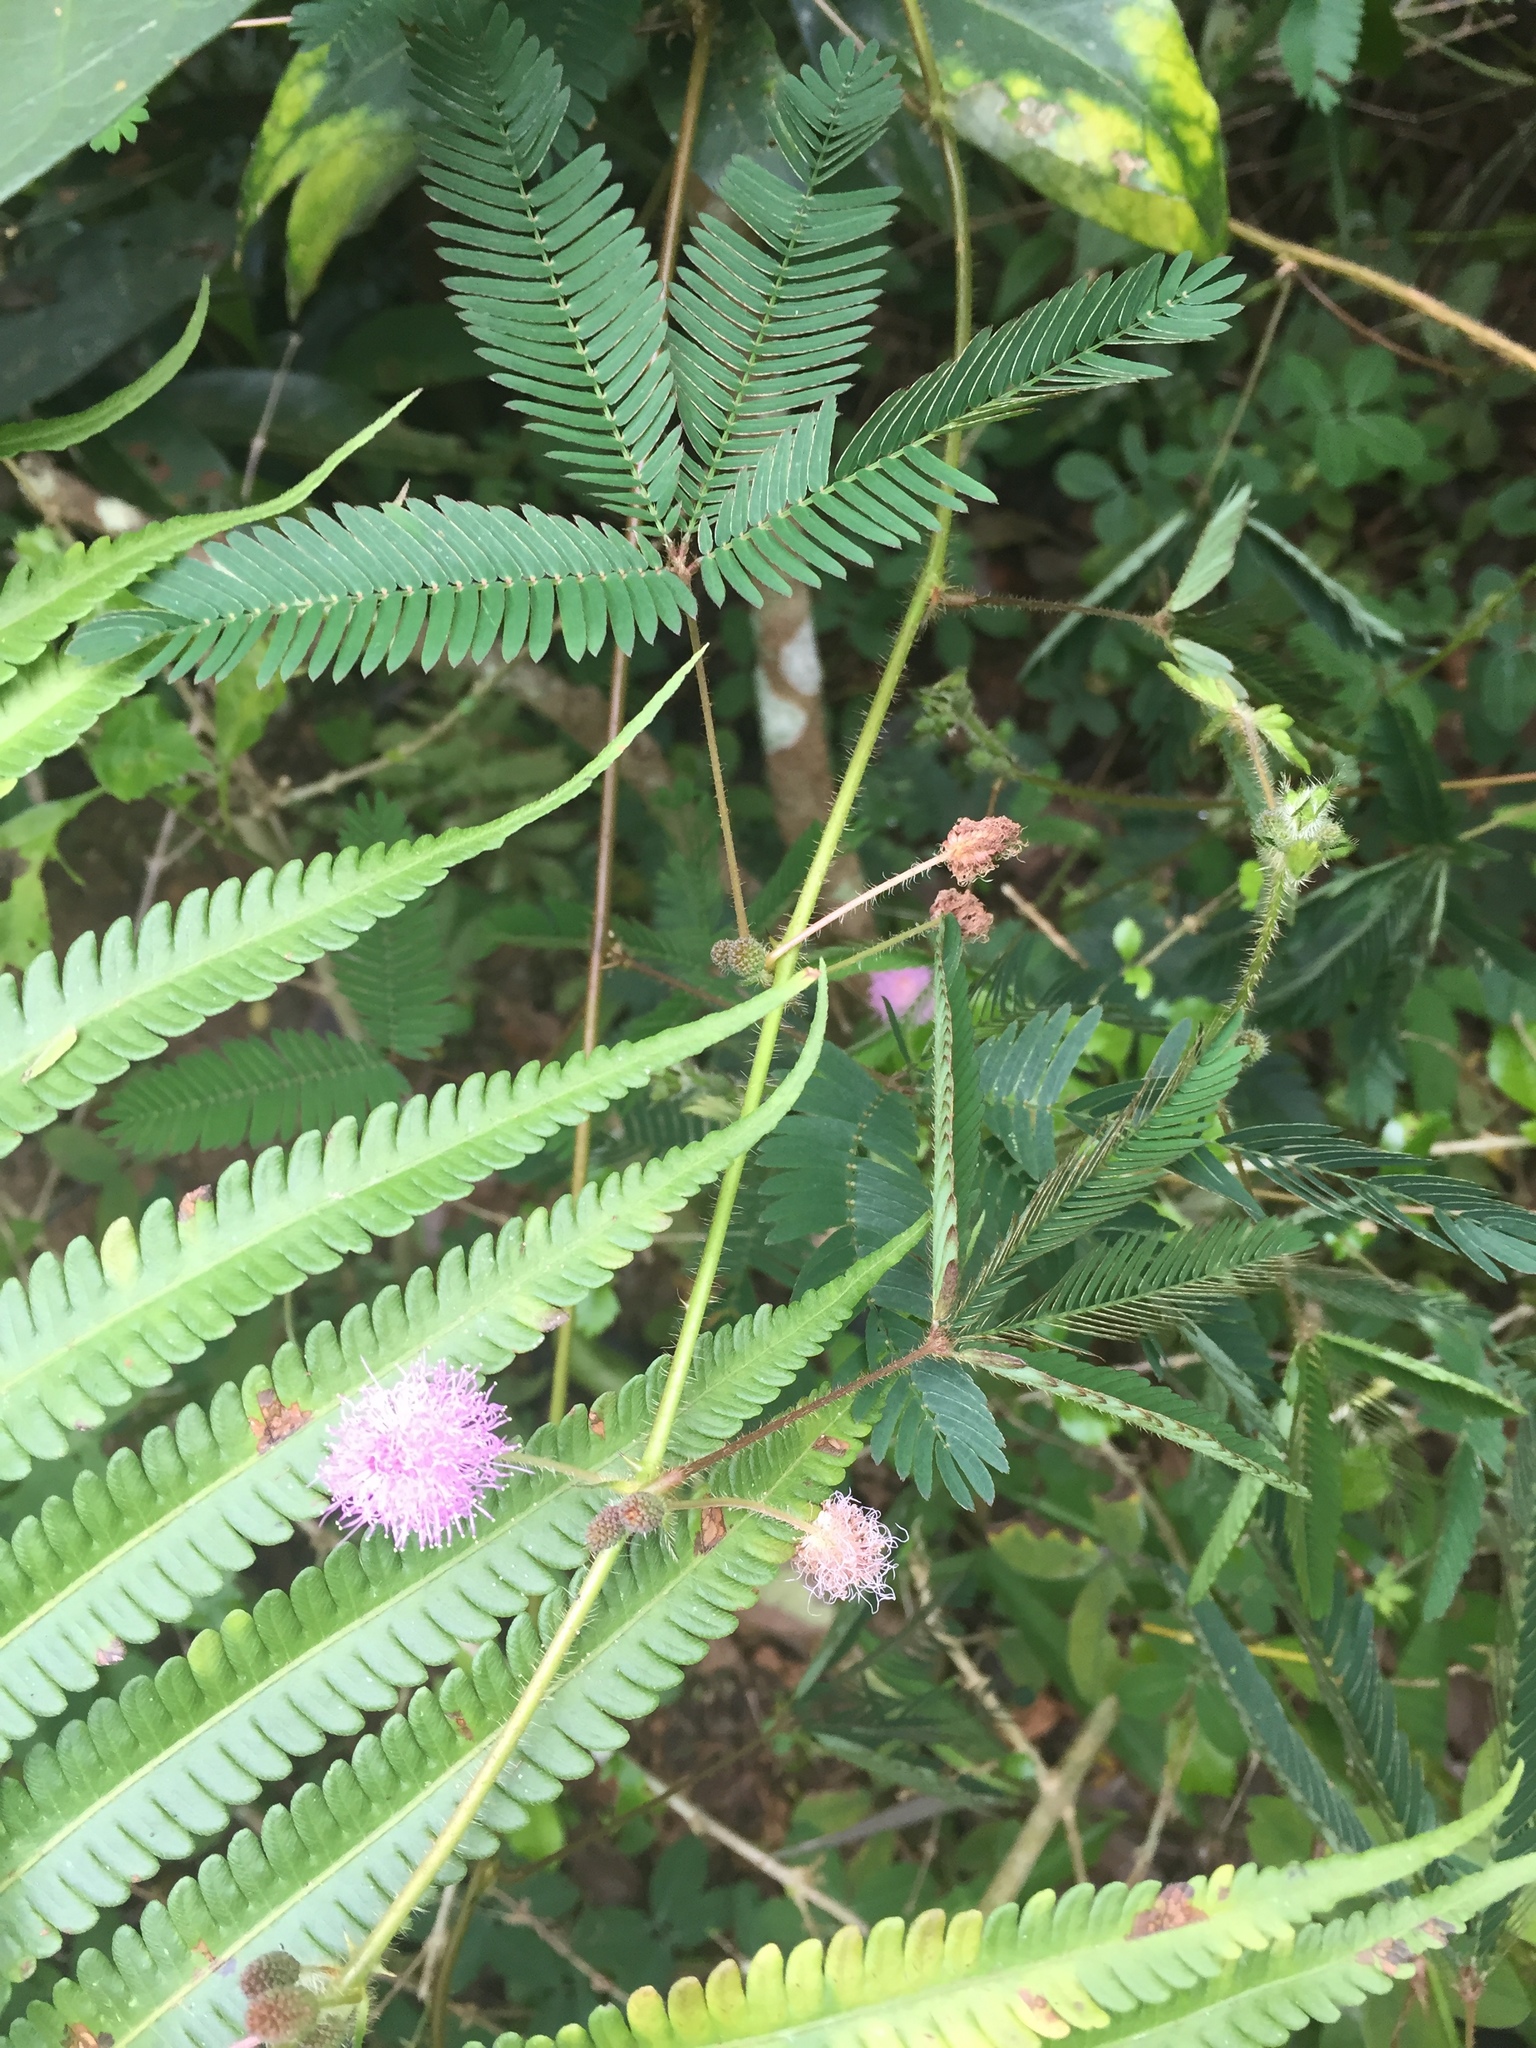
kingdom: Plantae
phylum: Tracheophyta
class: Magnoliopsida
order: Fabales
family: Fabaceae
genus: Mimosa
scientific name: Mimosa pudica
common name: Sensitive plant
